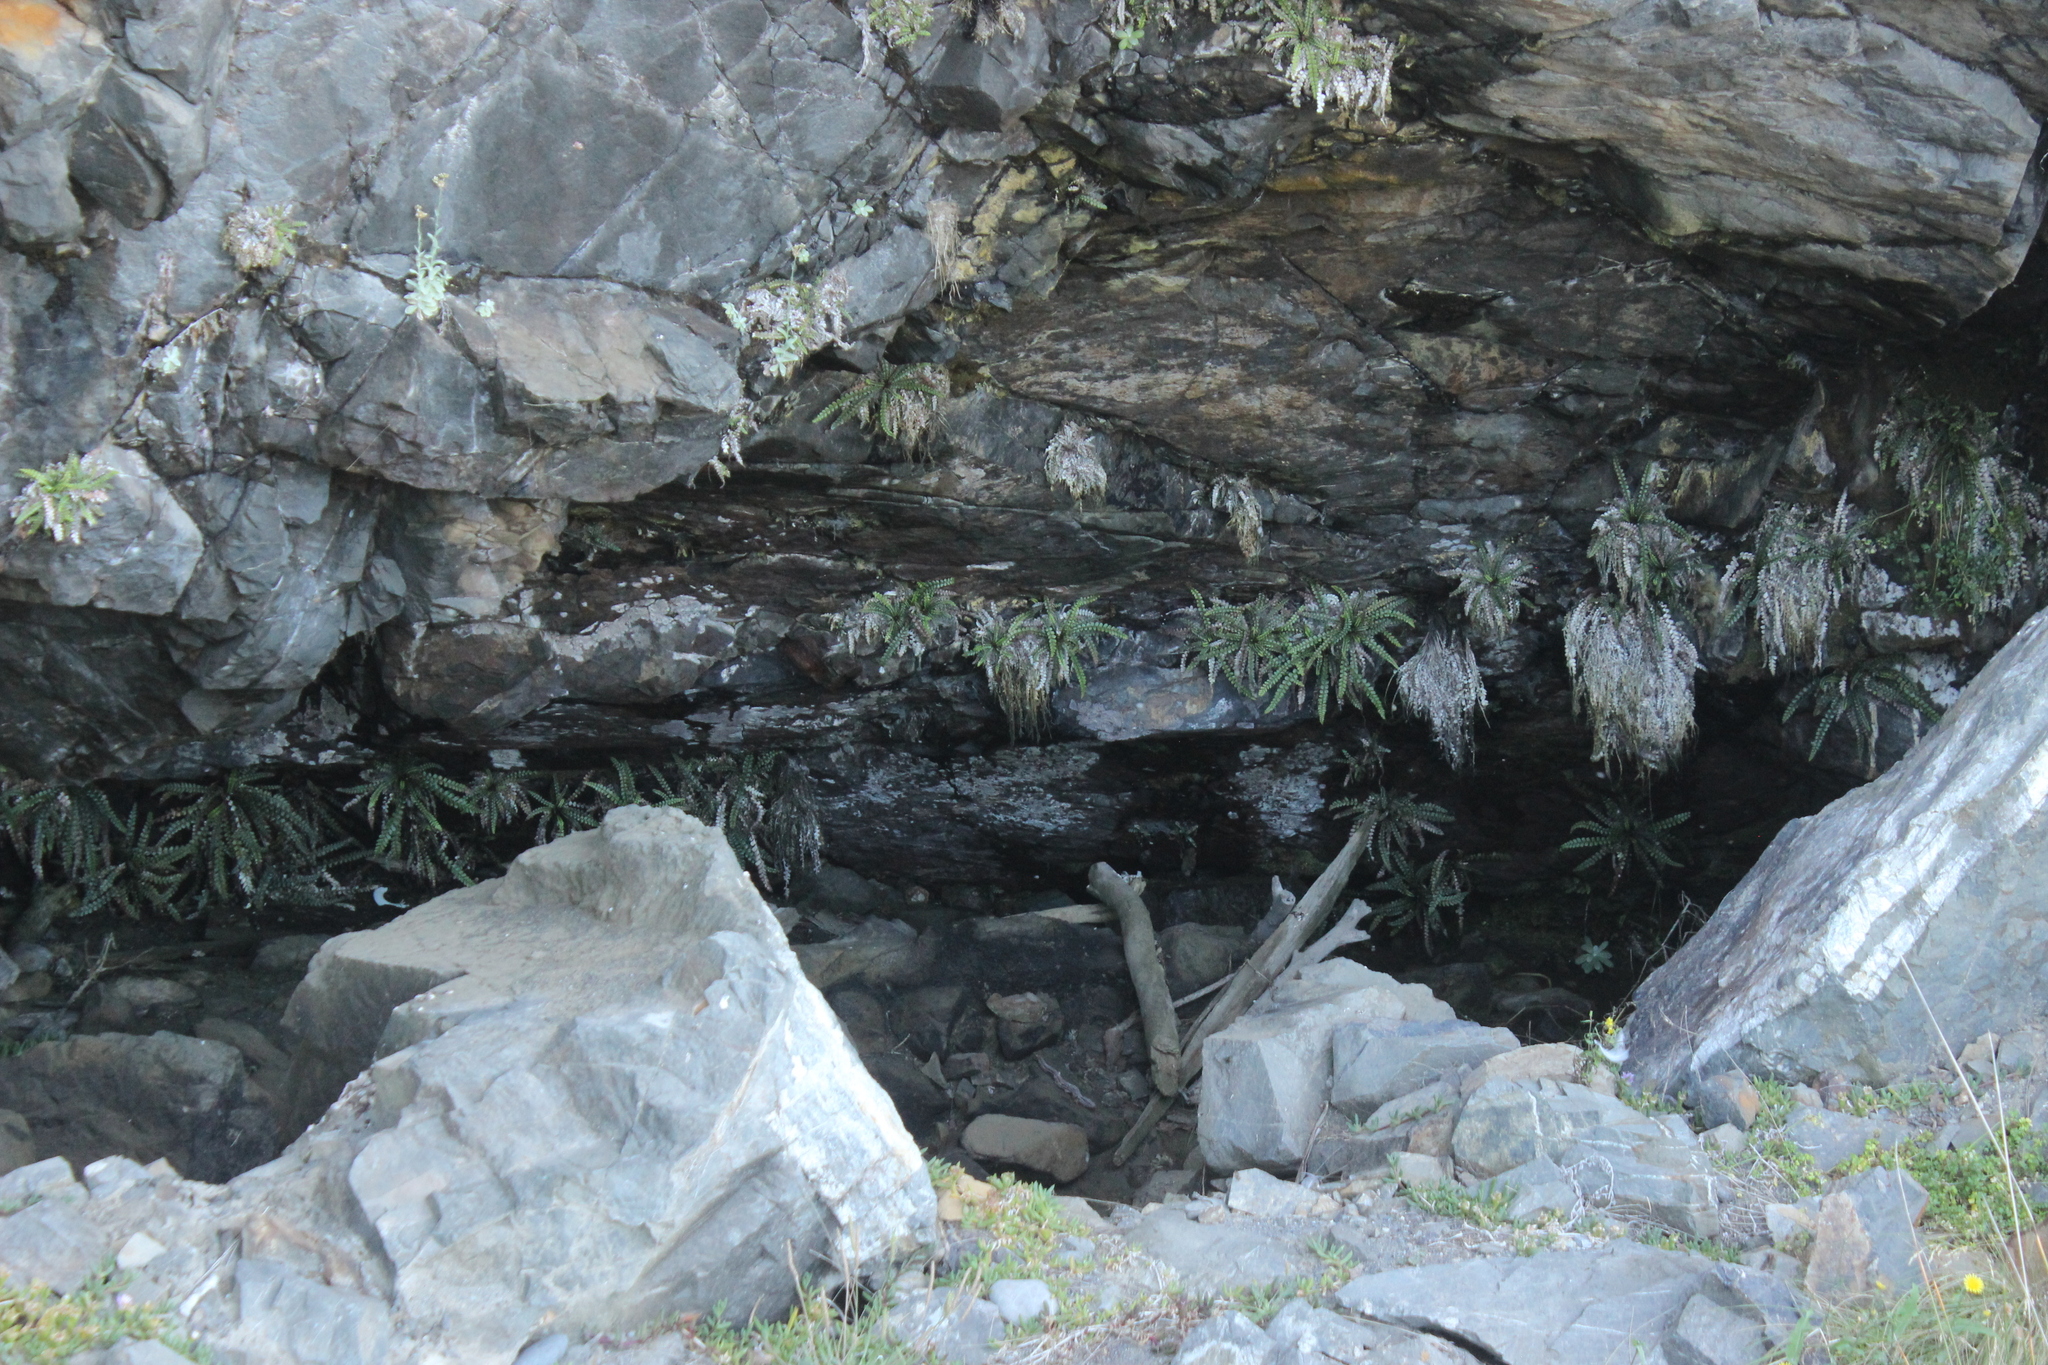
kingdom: Plantae
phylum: Tracheophyta
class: Polypodiopsida
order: Polypodiales
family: Blechnaceae
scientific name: Blechnaceae
